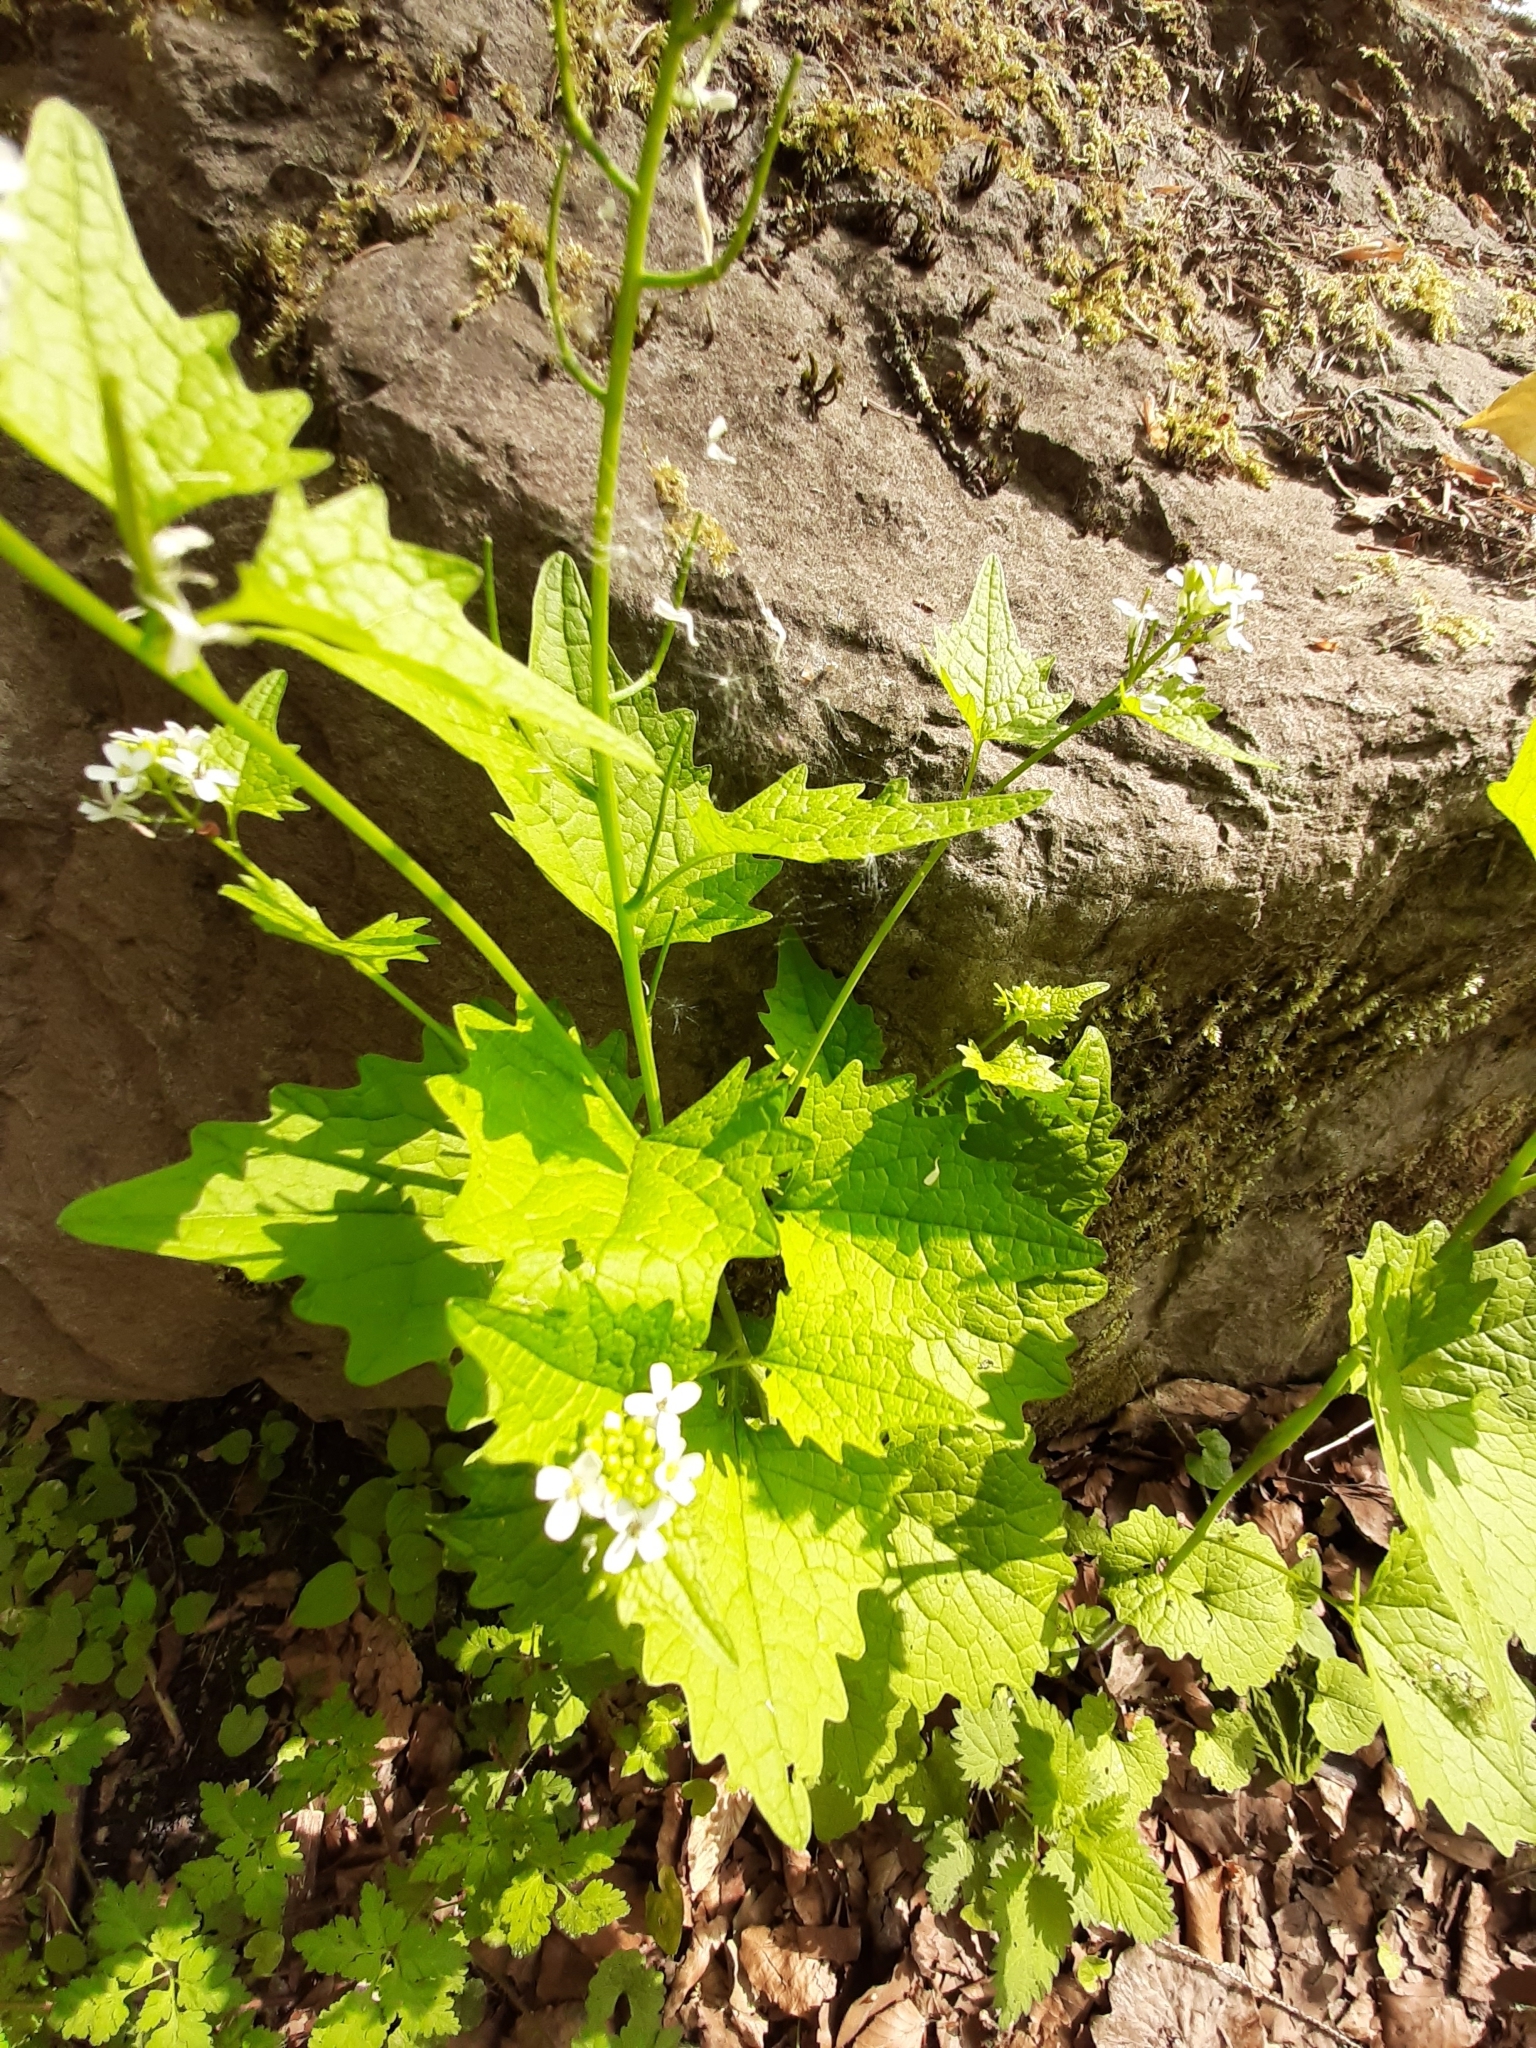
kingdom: Plantae
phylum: Tracheophyta
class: Magnoliopsida
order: Brassicales
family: Brassicaceae
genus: Alliaria
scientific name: Alliaria petiolata
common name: Garlic mustard
